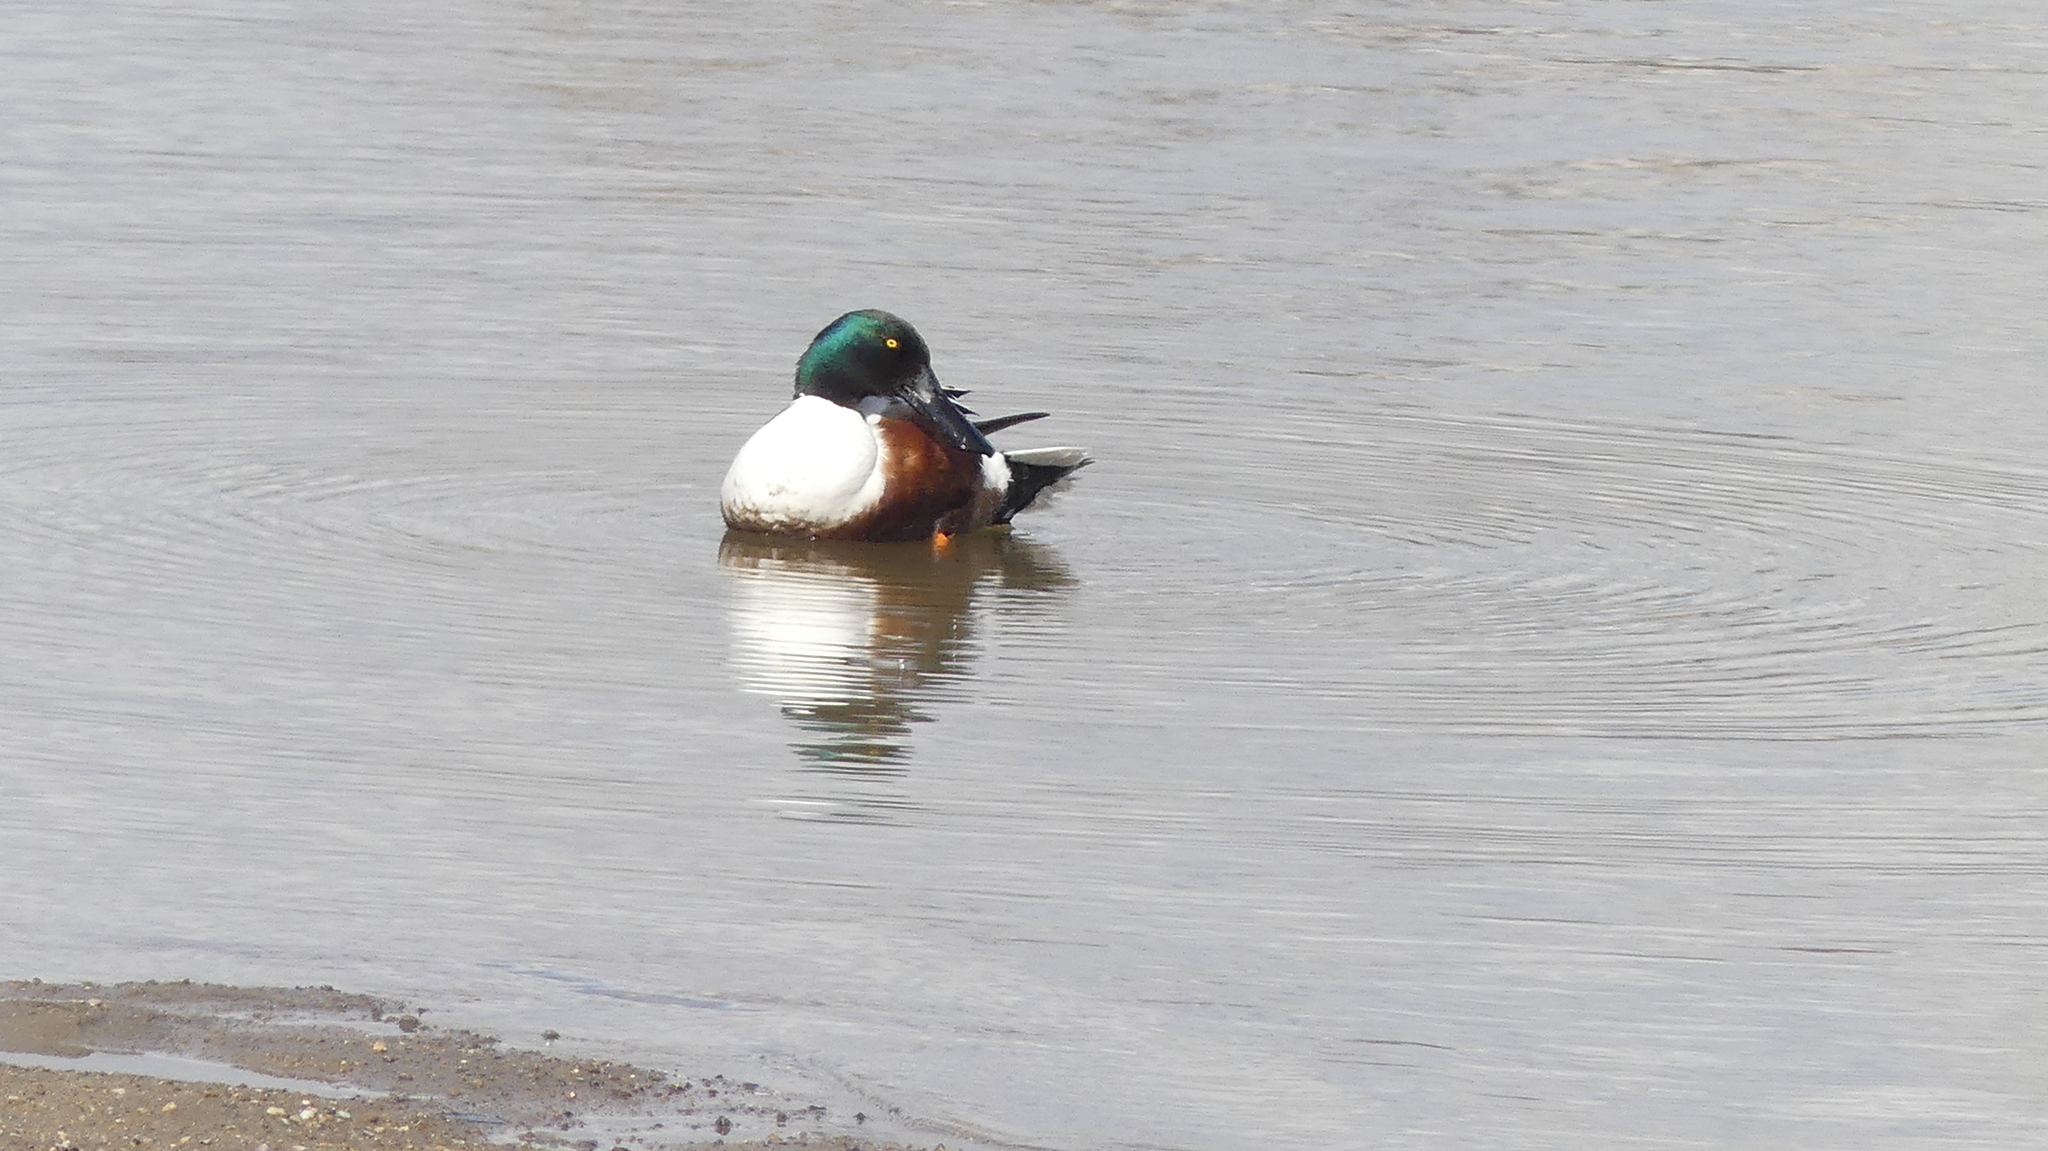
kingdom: Animalia
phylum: Chordata
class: Aves
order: Anseriformes
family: Anatidae
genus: Spatula
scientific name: Spatula clypeata
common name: Northern shoveler
